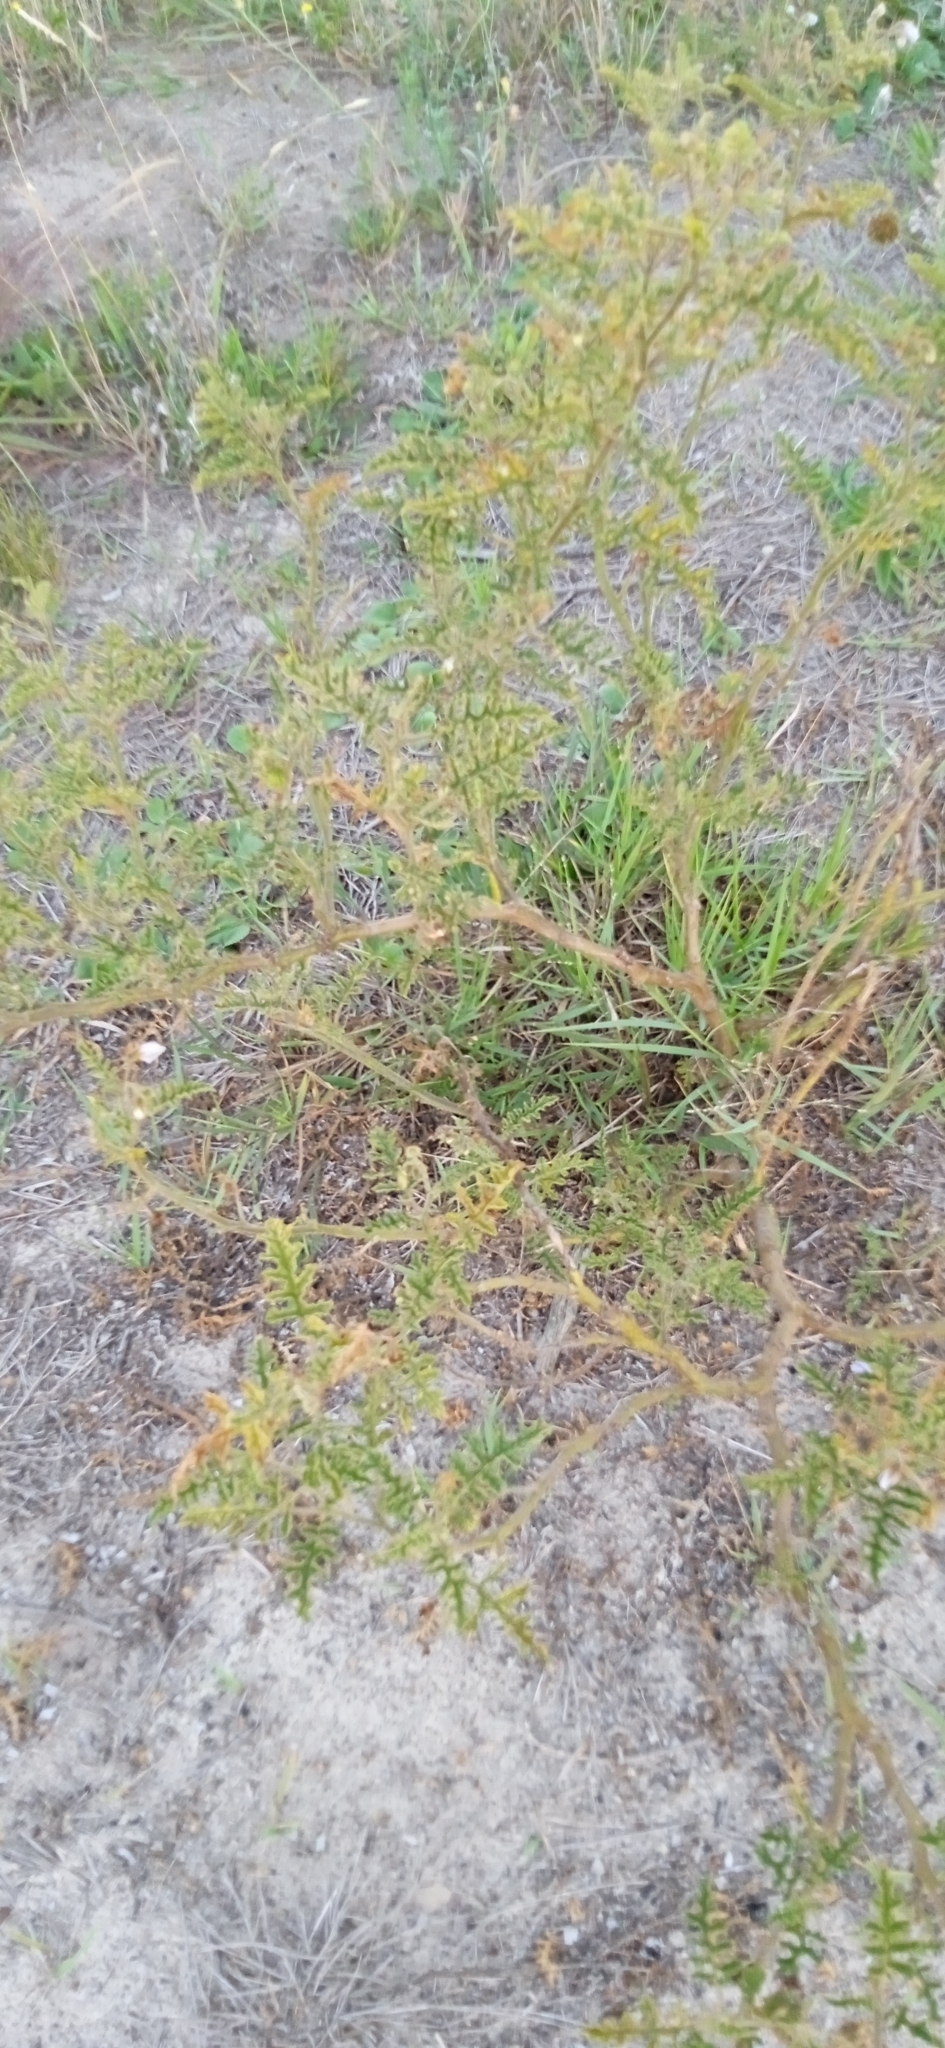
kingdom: Plantae
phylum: Tracheophyta
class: Magnoliopsida
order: Solanales
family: Solanaceae
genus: Solanum
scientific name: Solanum sisymbriifolium
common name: Red buffalo-bur
